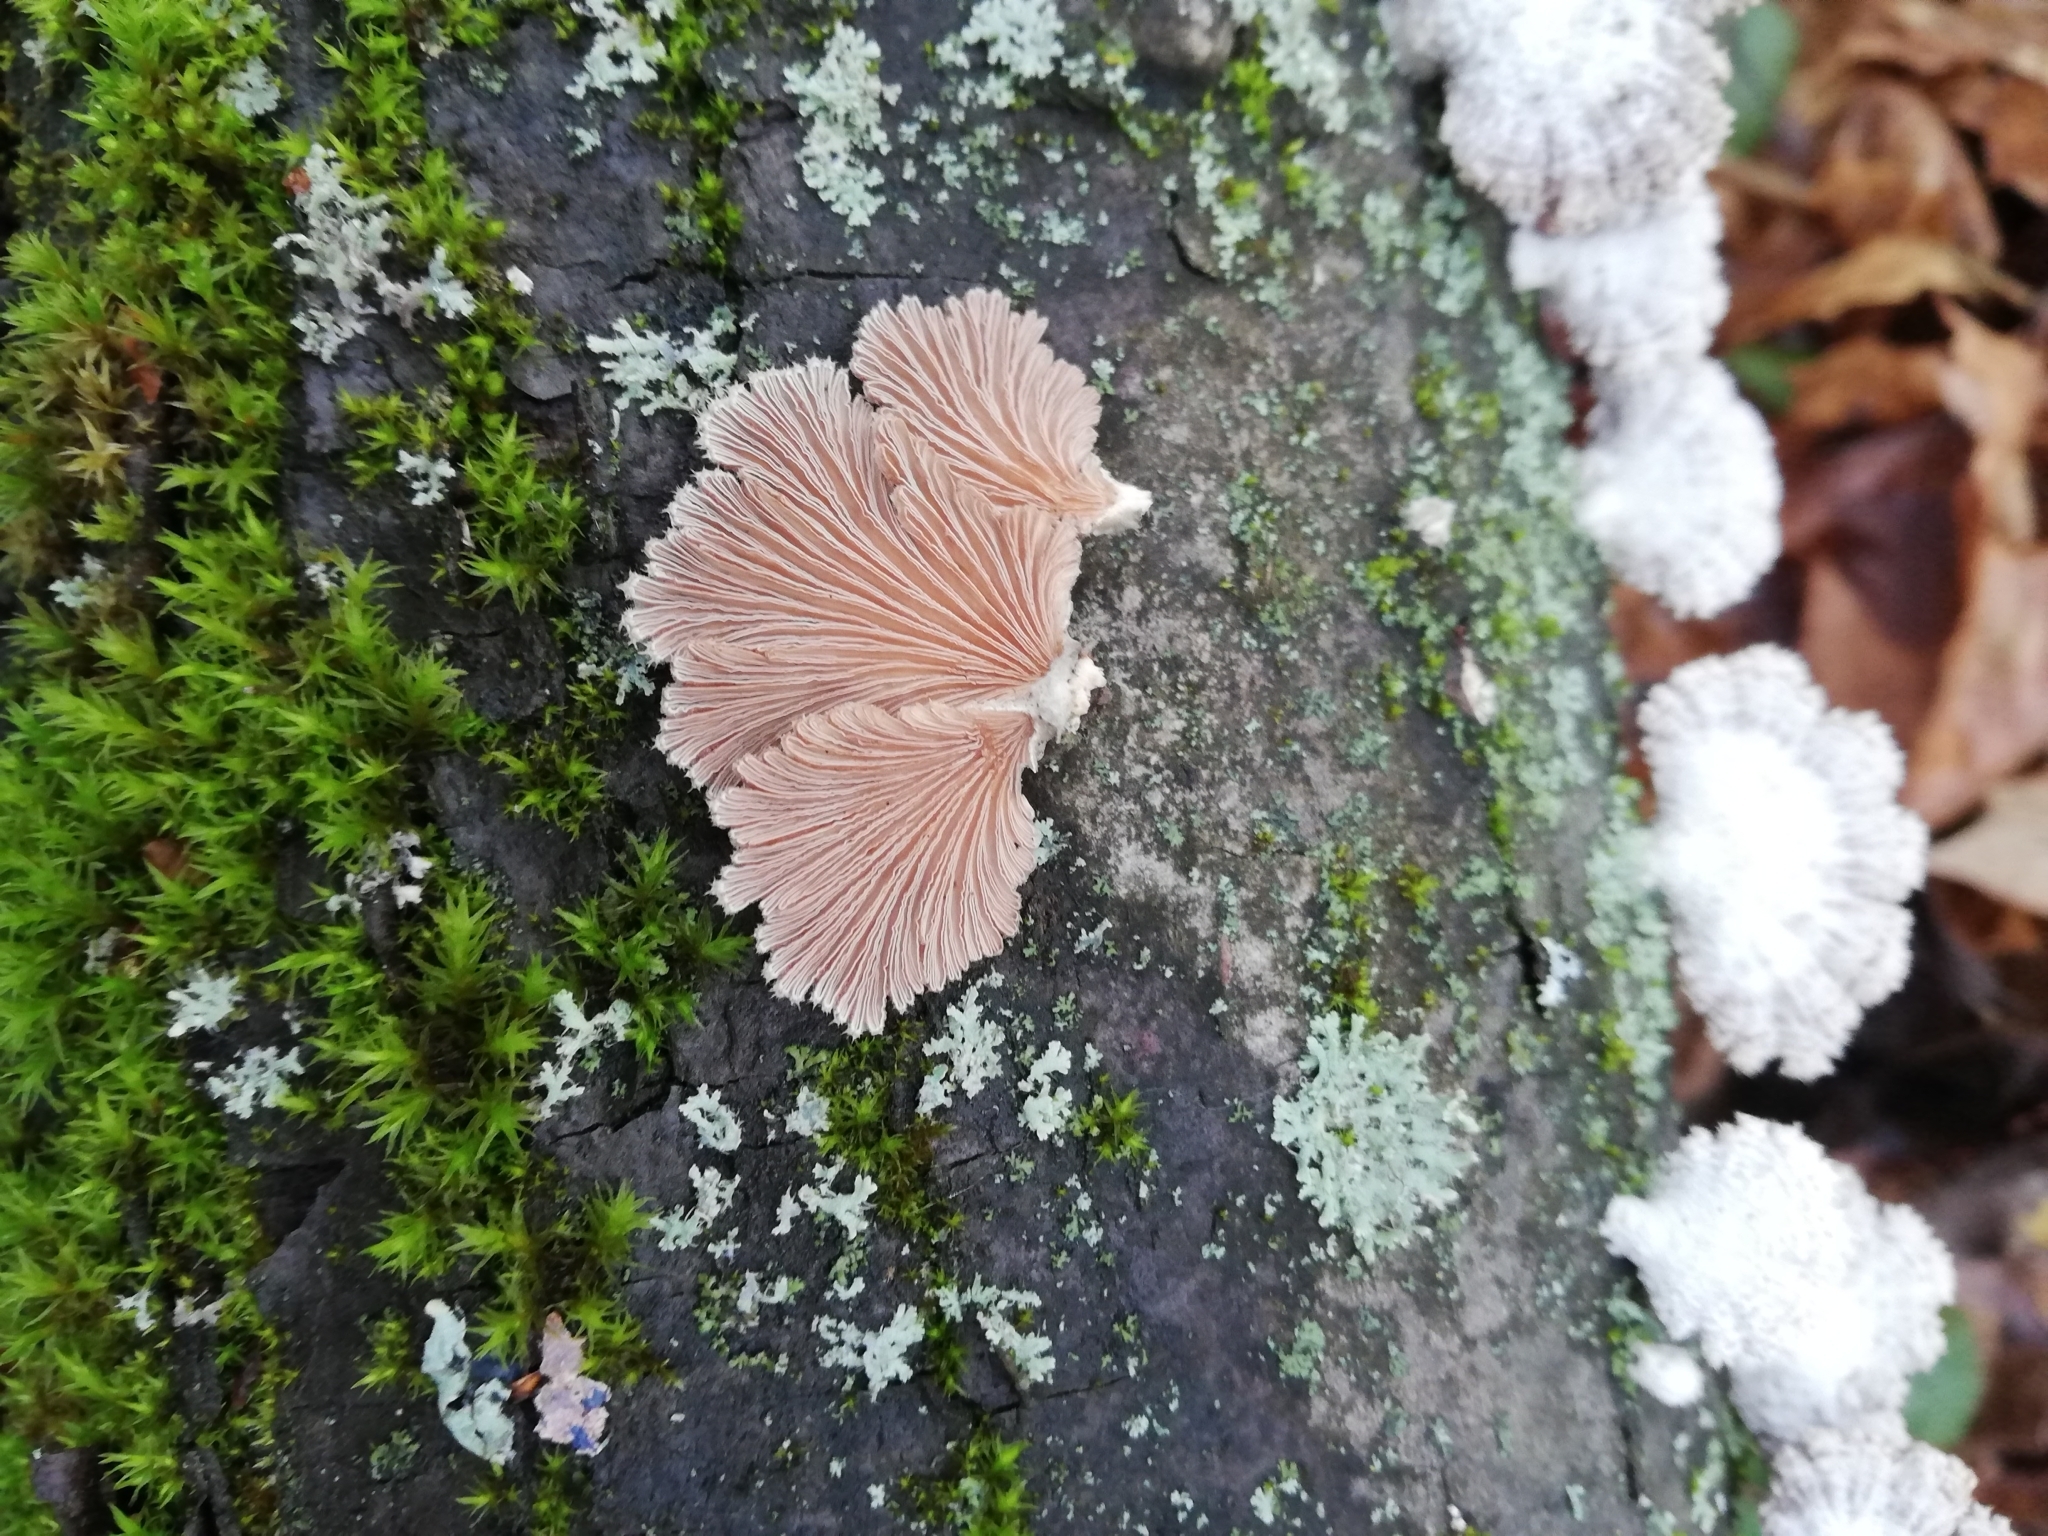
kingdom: Fungi
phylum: Basidiomycota
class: Agaricomycetes
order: Agaricales
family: Schizophyllaceae
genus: Schizophyllum
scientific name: Schizophyllum commune
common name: Common porecrust
